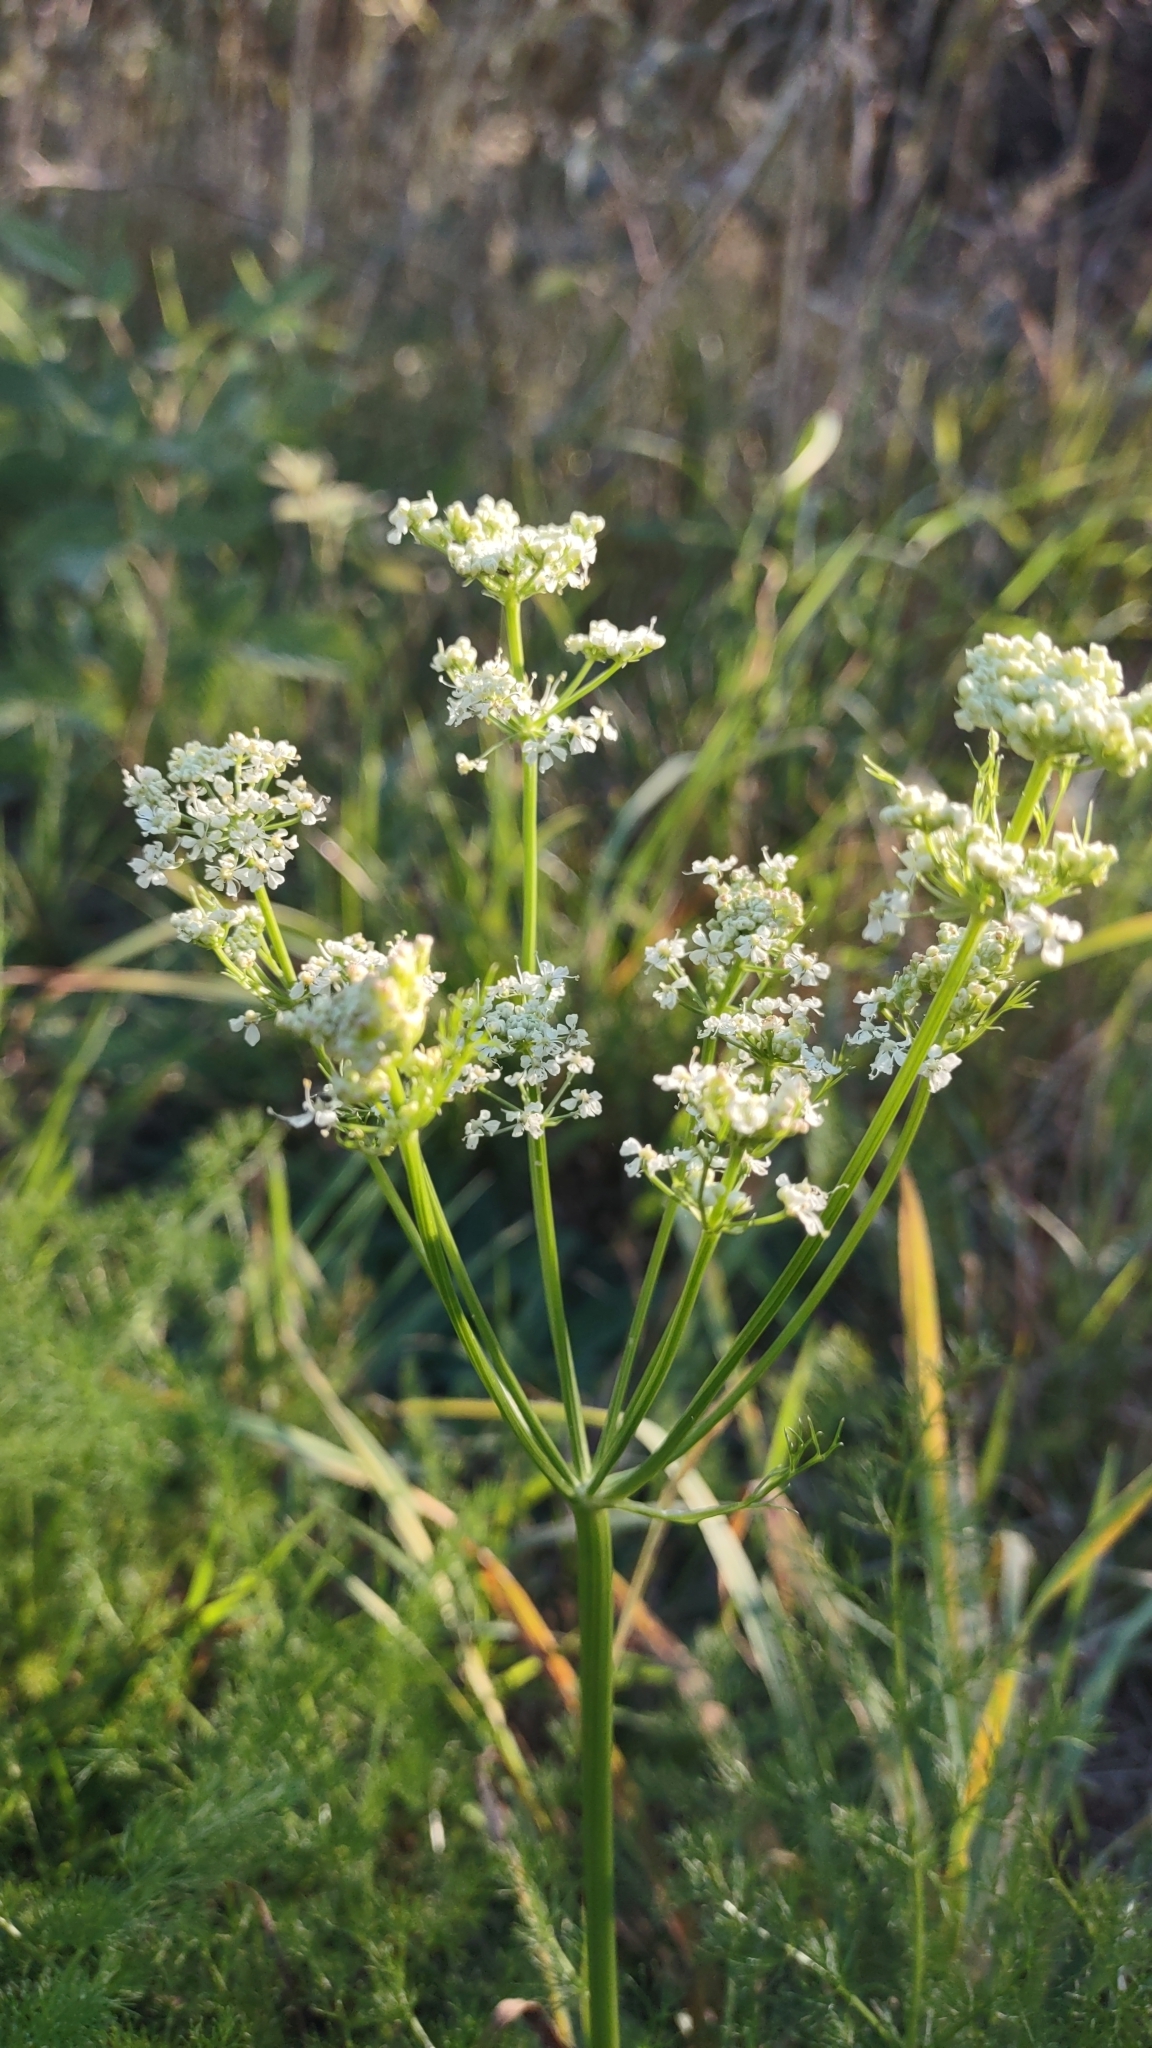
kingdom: Plantae
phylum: Tracheophyta
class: Magnoliopsida
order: Apiales
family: Apiaceae
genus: Meum
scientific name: Meum athamanticum
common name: Spignel
